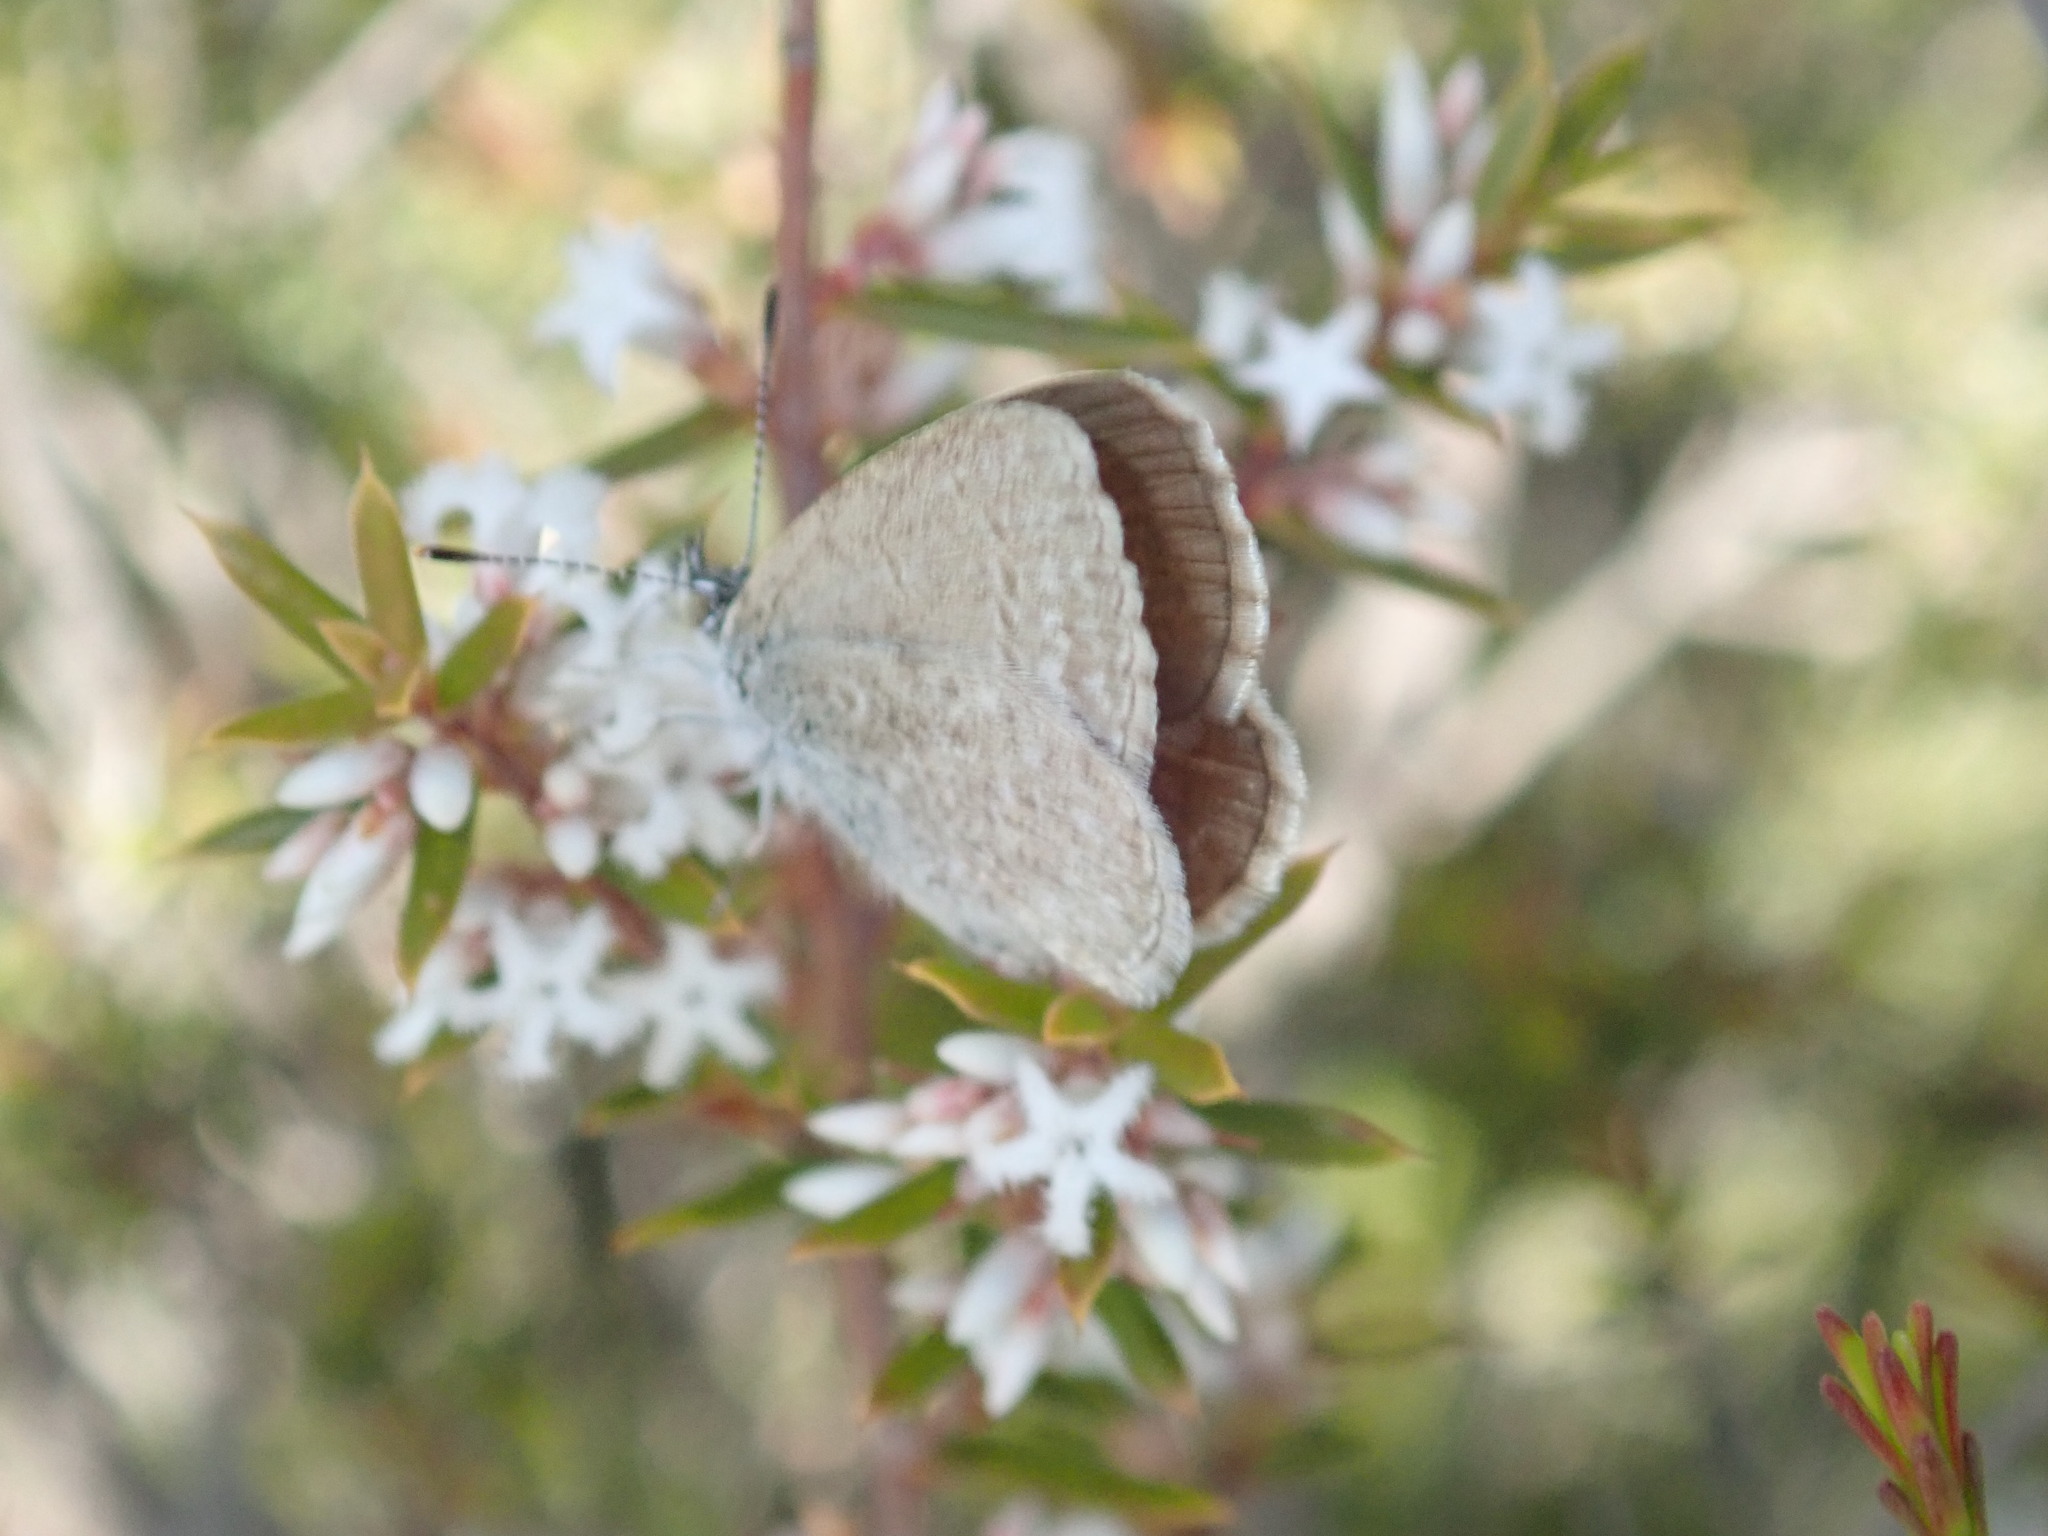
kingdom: Animalia
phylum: Arthropoda
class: Insecta
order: Lepidoptera
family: Lycaenidae
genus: Zizina
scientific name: Zizina labradus
